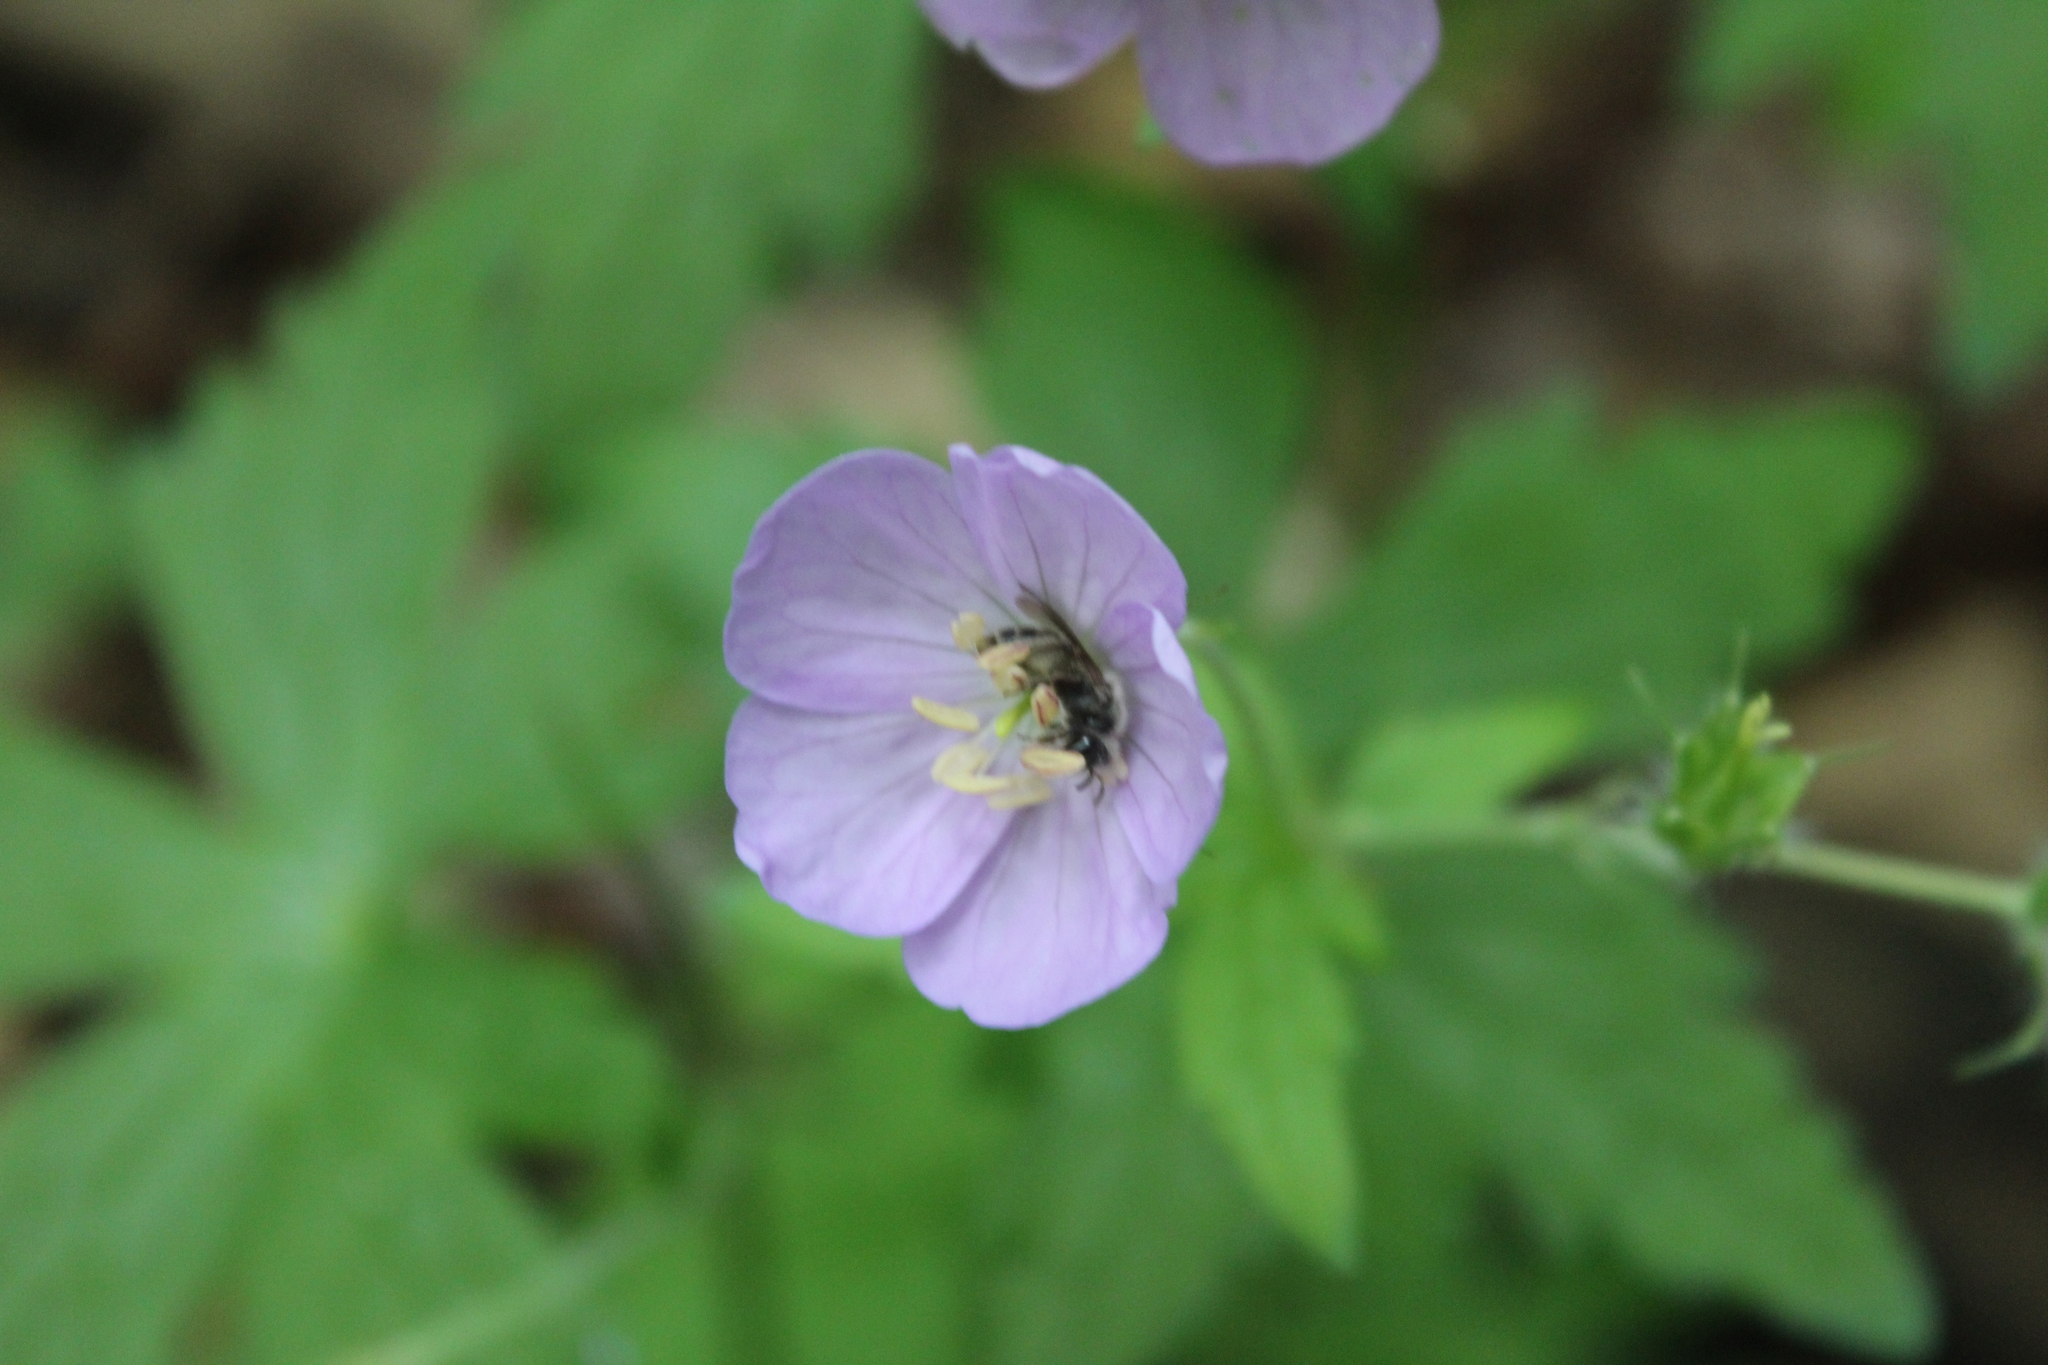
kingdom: Plantae
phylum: Tracheophyta
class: Magnoliopsida
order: Geraniales
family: Geraniaceae
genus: Geranium
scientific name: Geranium maculatum
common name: Spotted geranium
